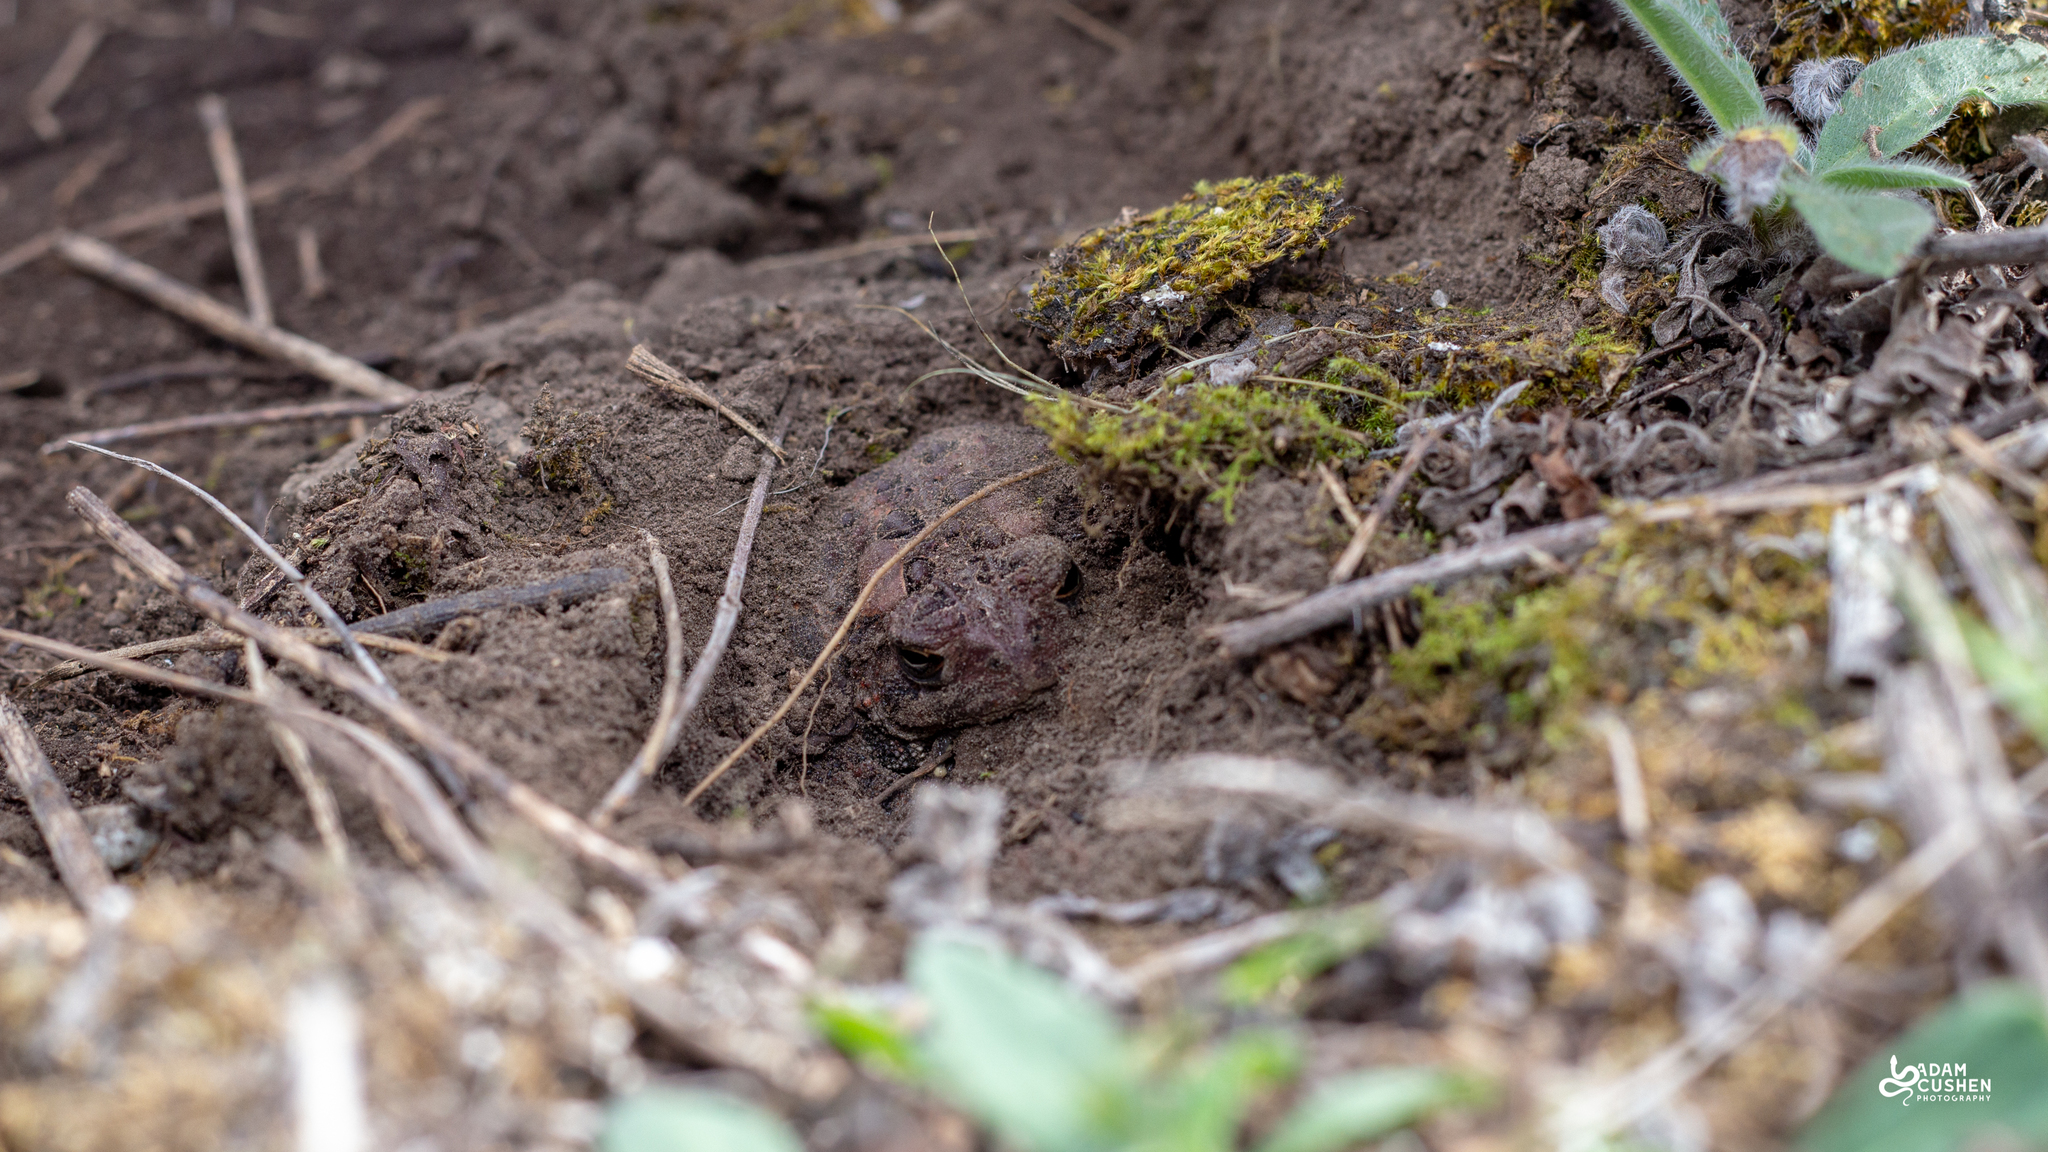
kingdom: Animalia
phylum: Chordata
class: Amphibia
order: Anura
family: Bufonidae
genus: Anaxyrus
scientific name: Anaxyrus americanus
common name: American toad
